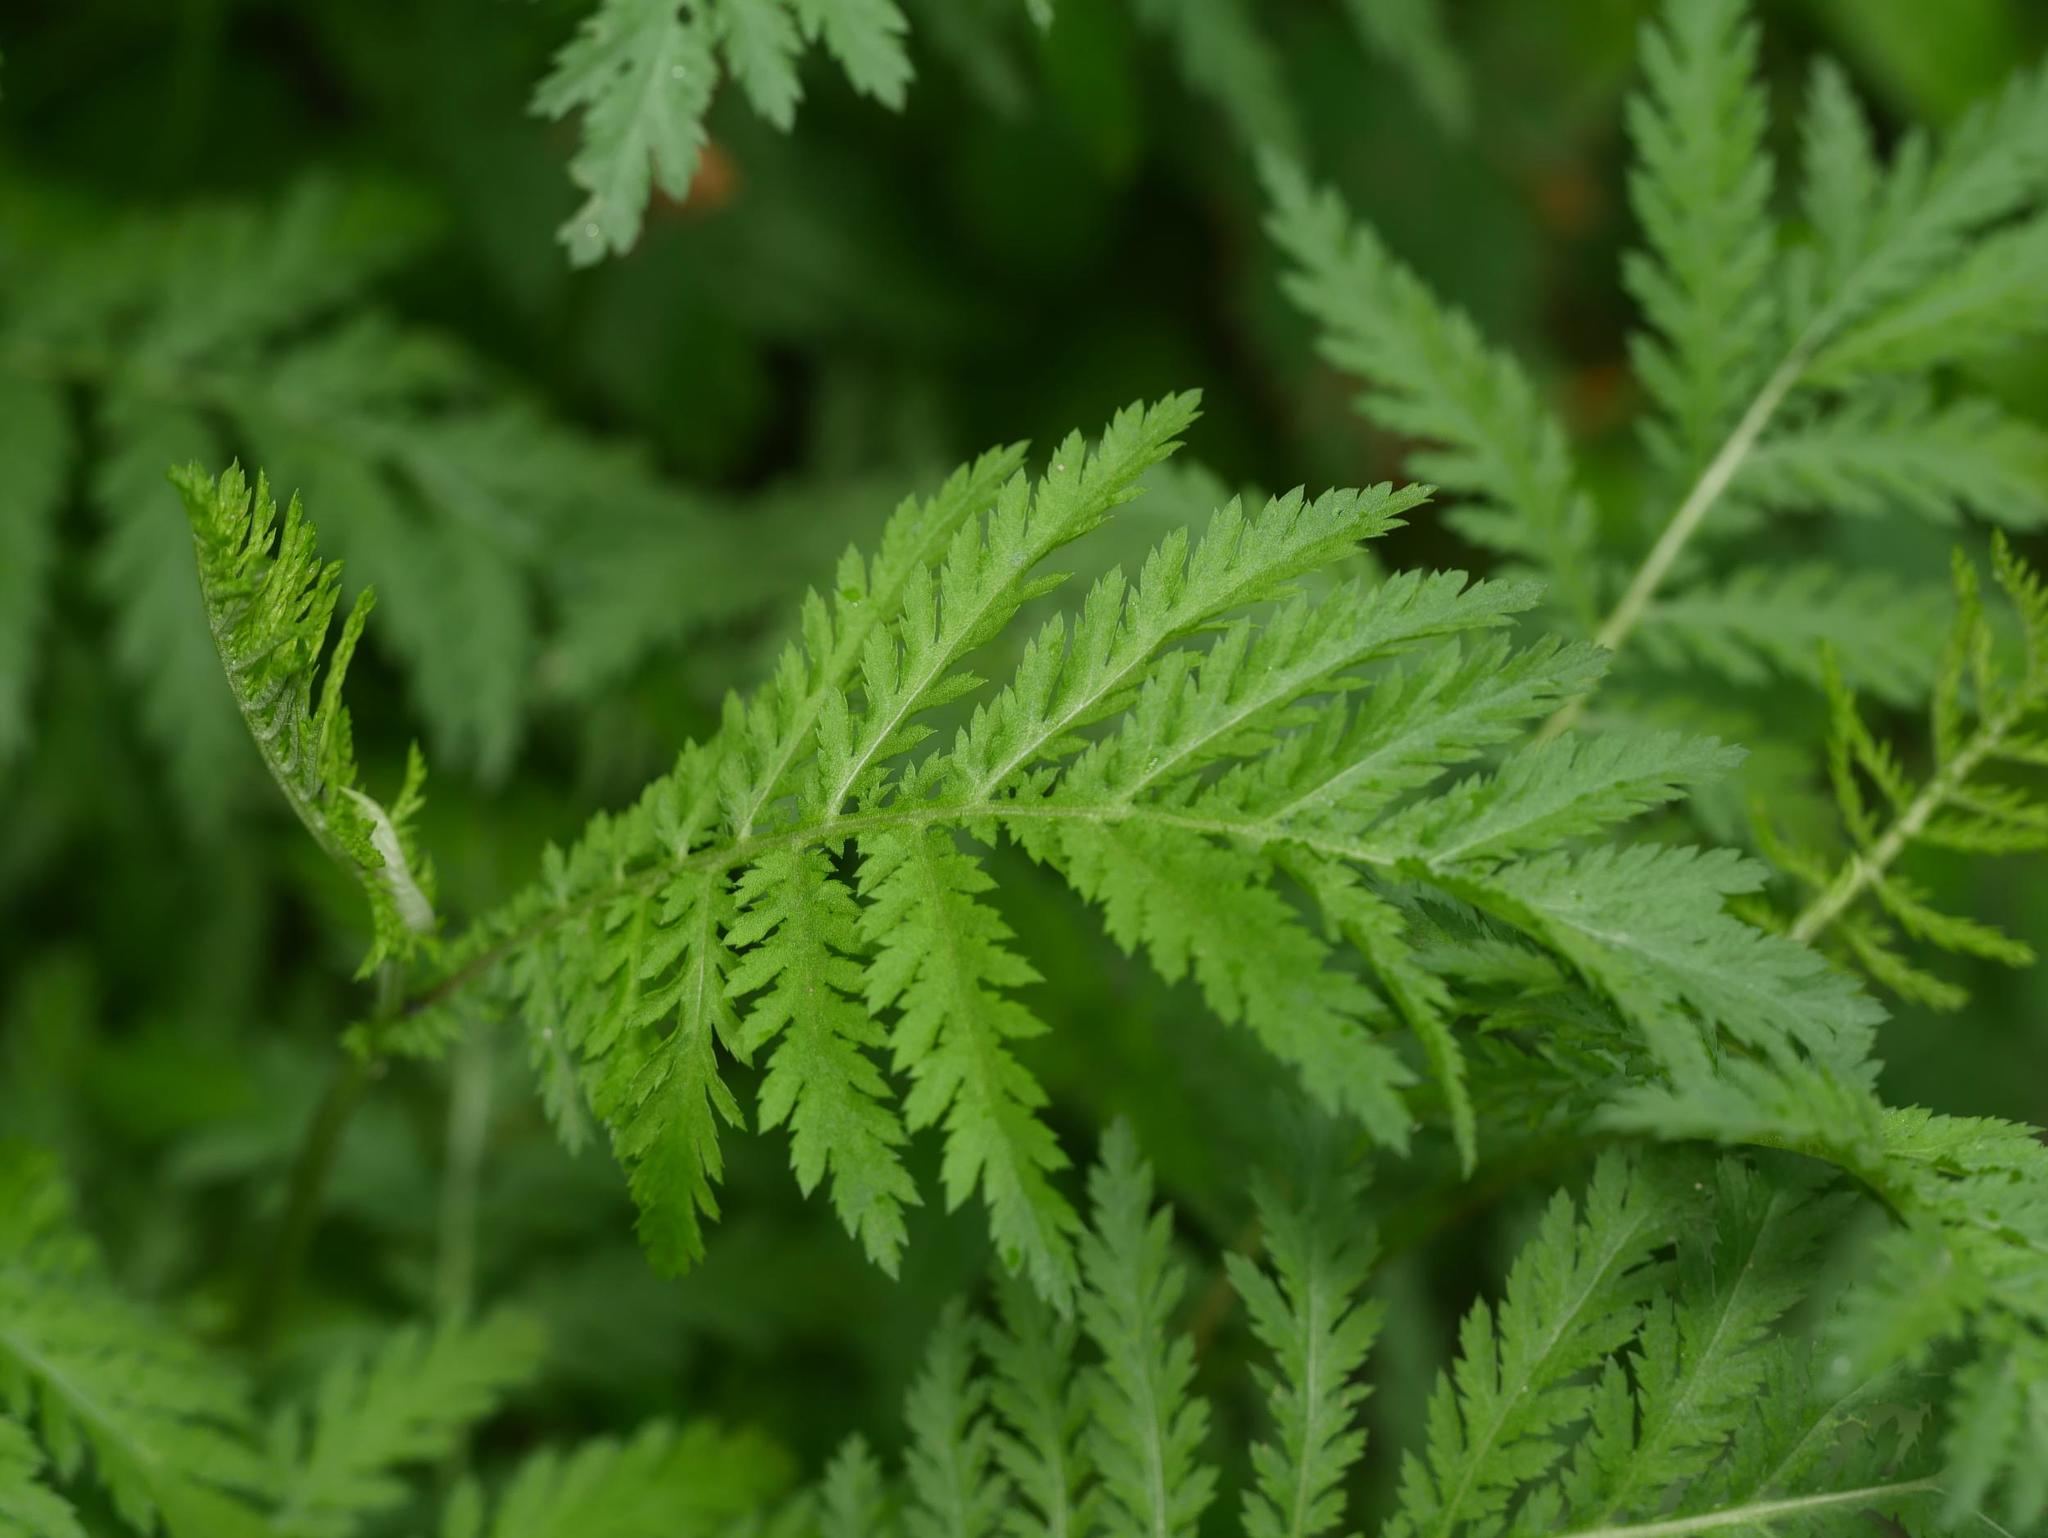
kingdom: Plantae
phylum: Tracheophyta
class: Magnoliopsida
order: Asterales
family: Asteraceae
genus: Tanacetum
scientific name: Tanacetum vulgare
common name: Common tansy
